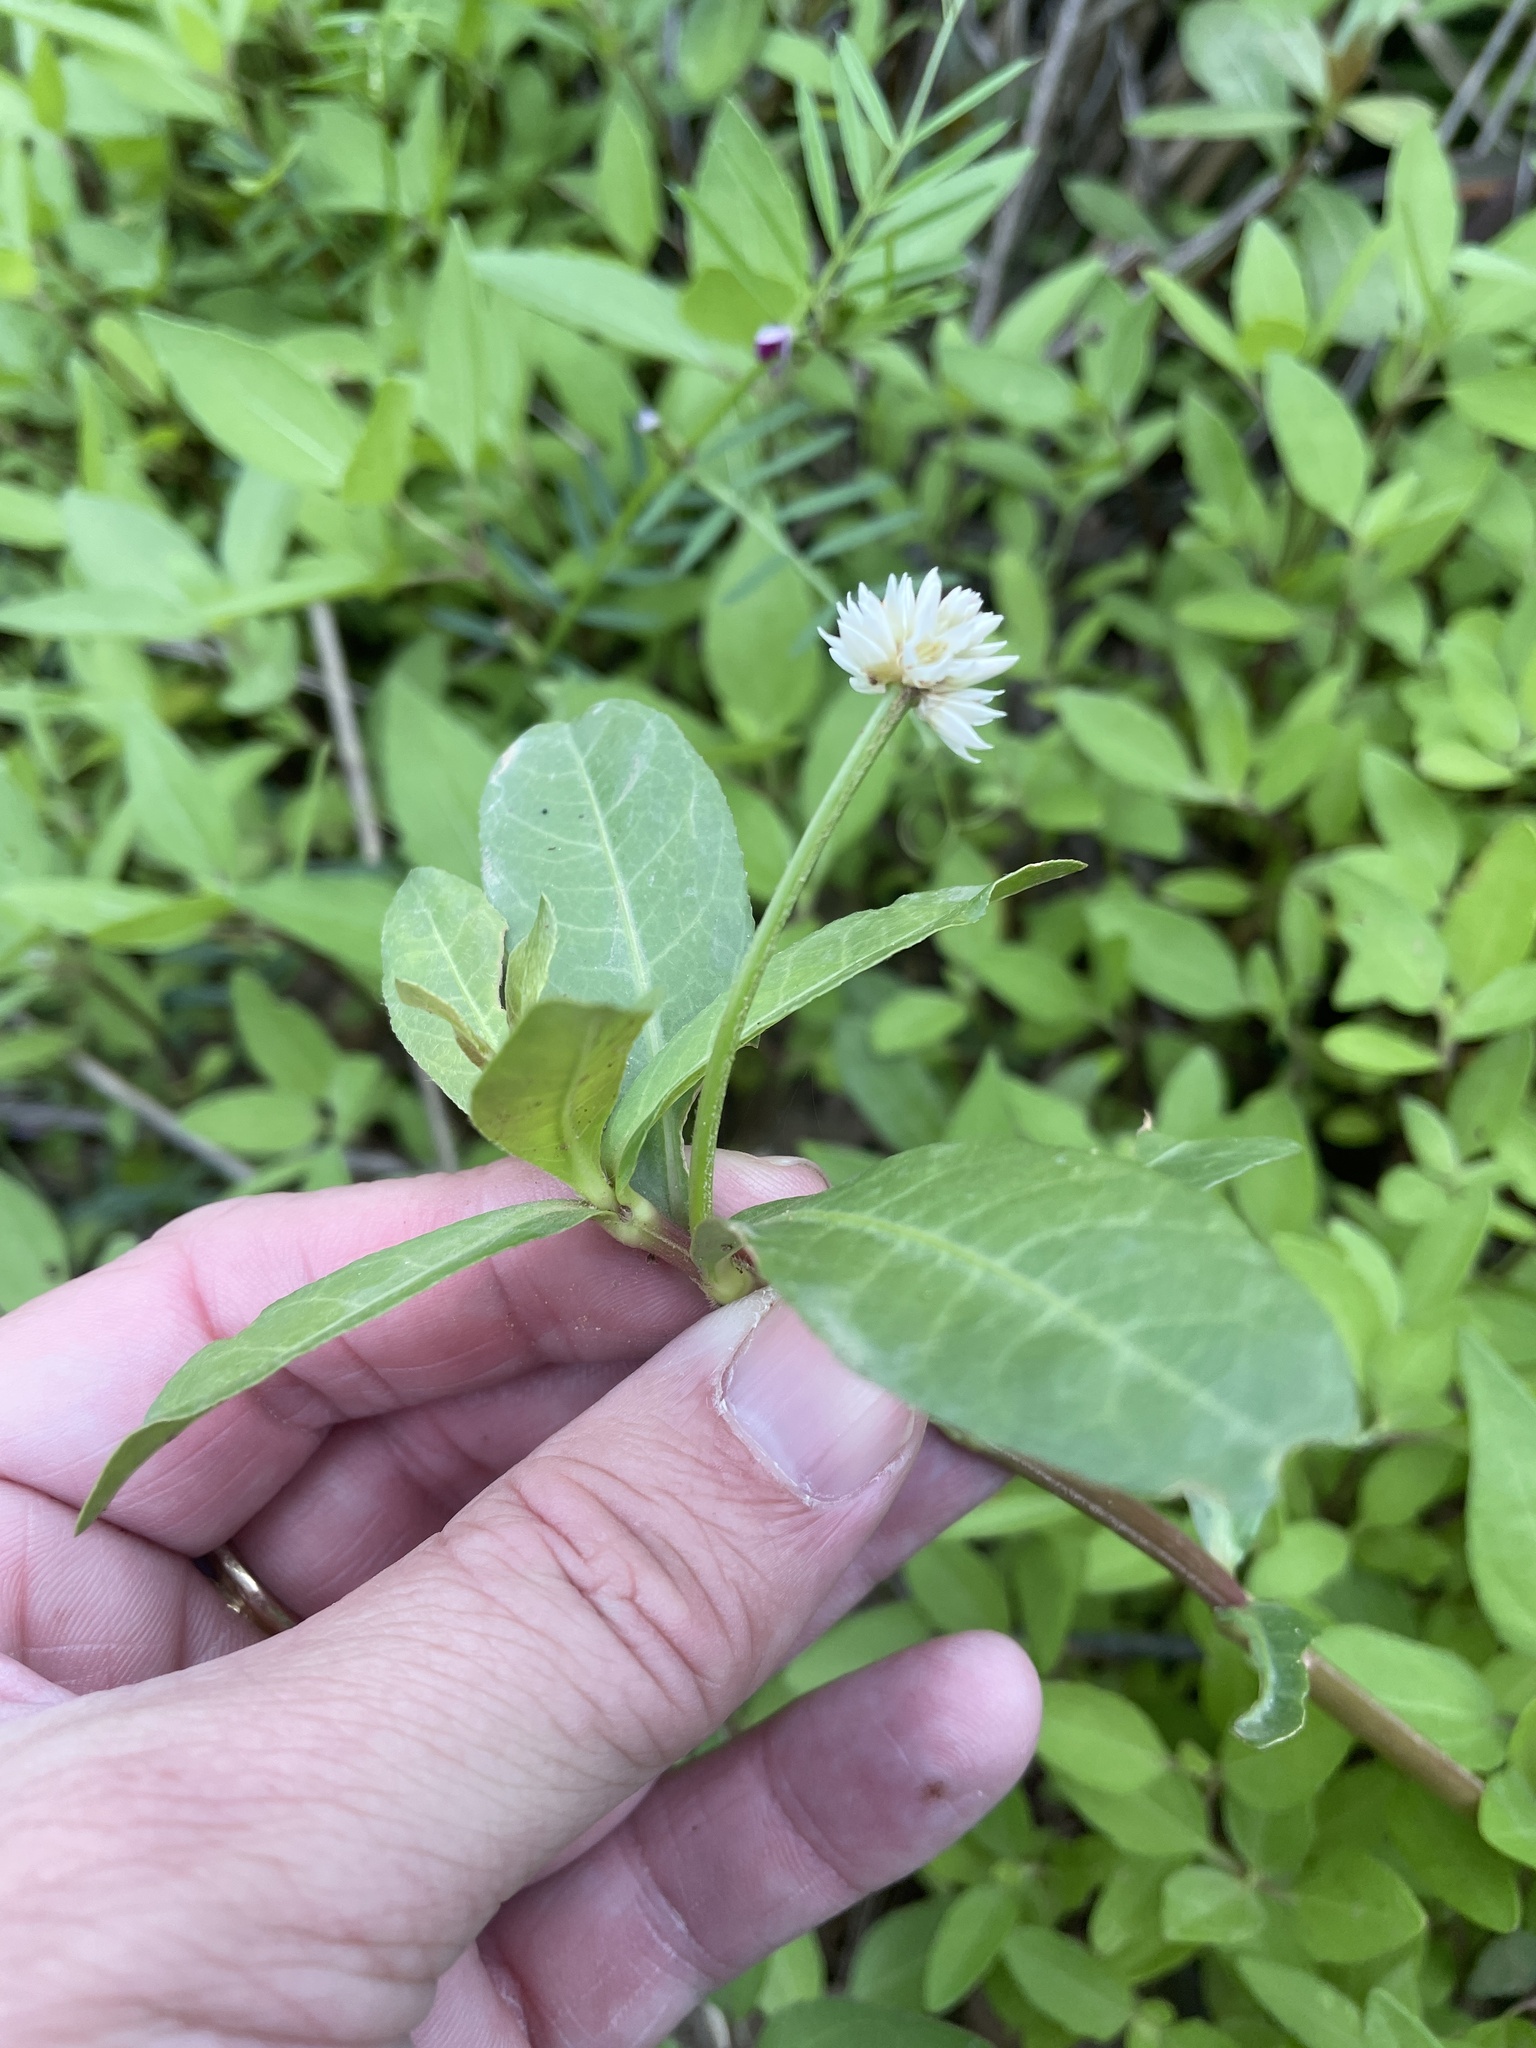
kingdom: Plantae
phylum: Tracheophyta
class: Magnoliopsida
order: Caryophyllales
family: Amaranthaceae
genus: Alternanthera
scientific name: Alternanthera philoxeroides
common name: Alligatorweed
